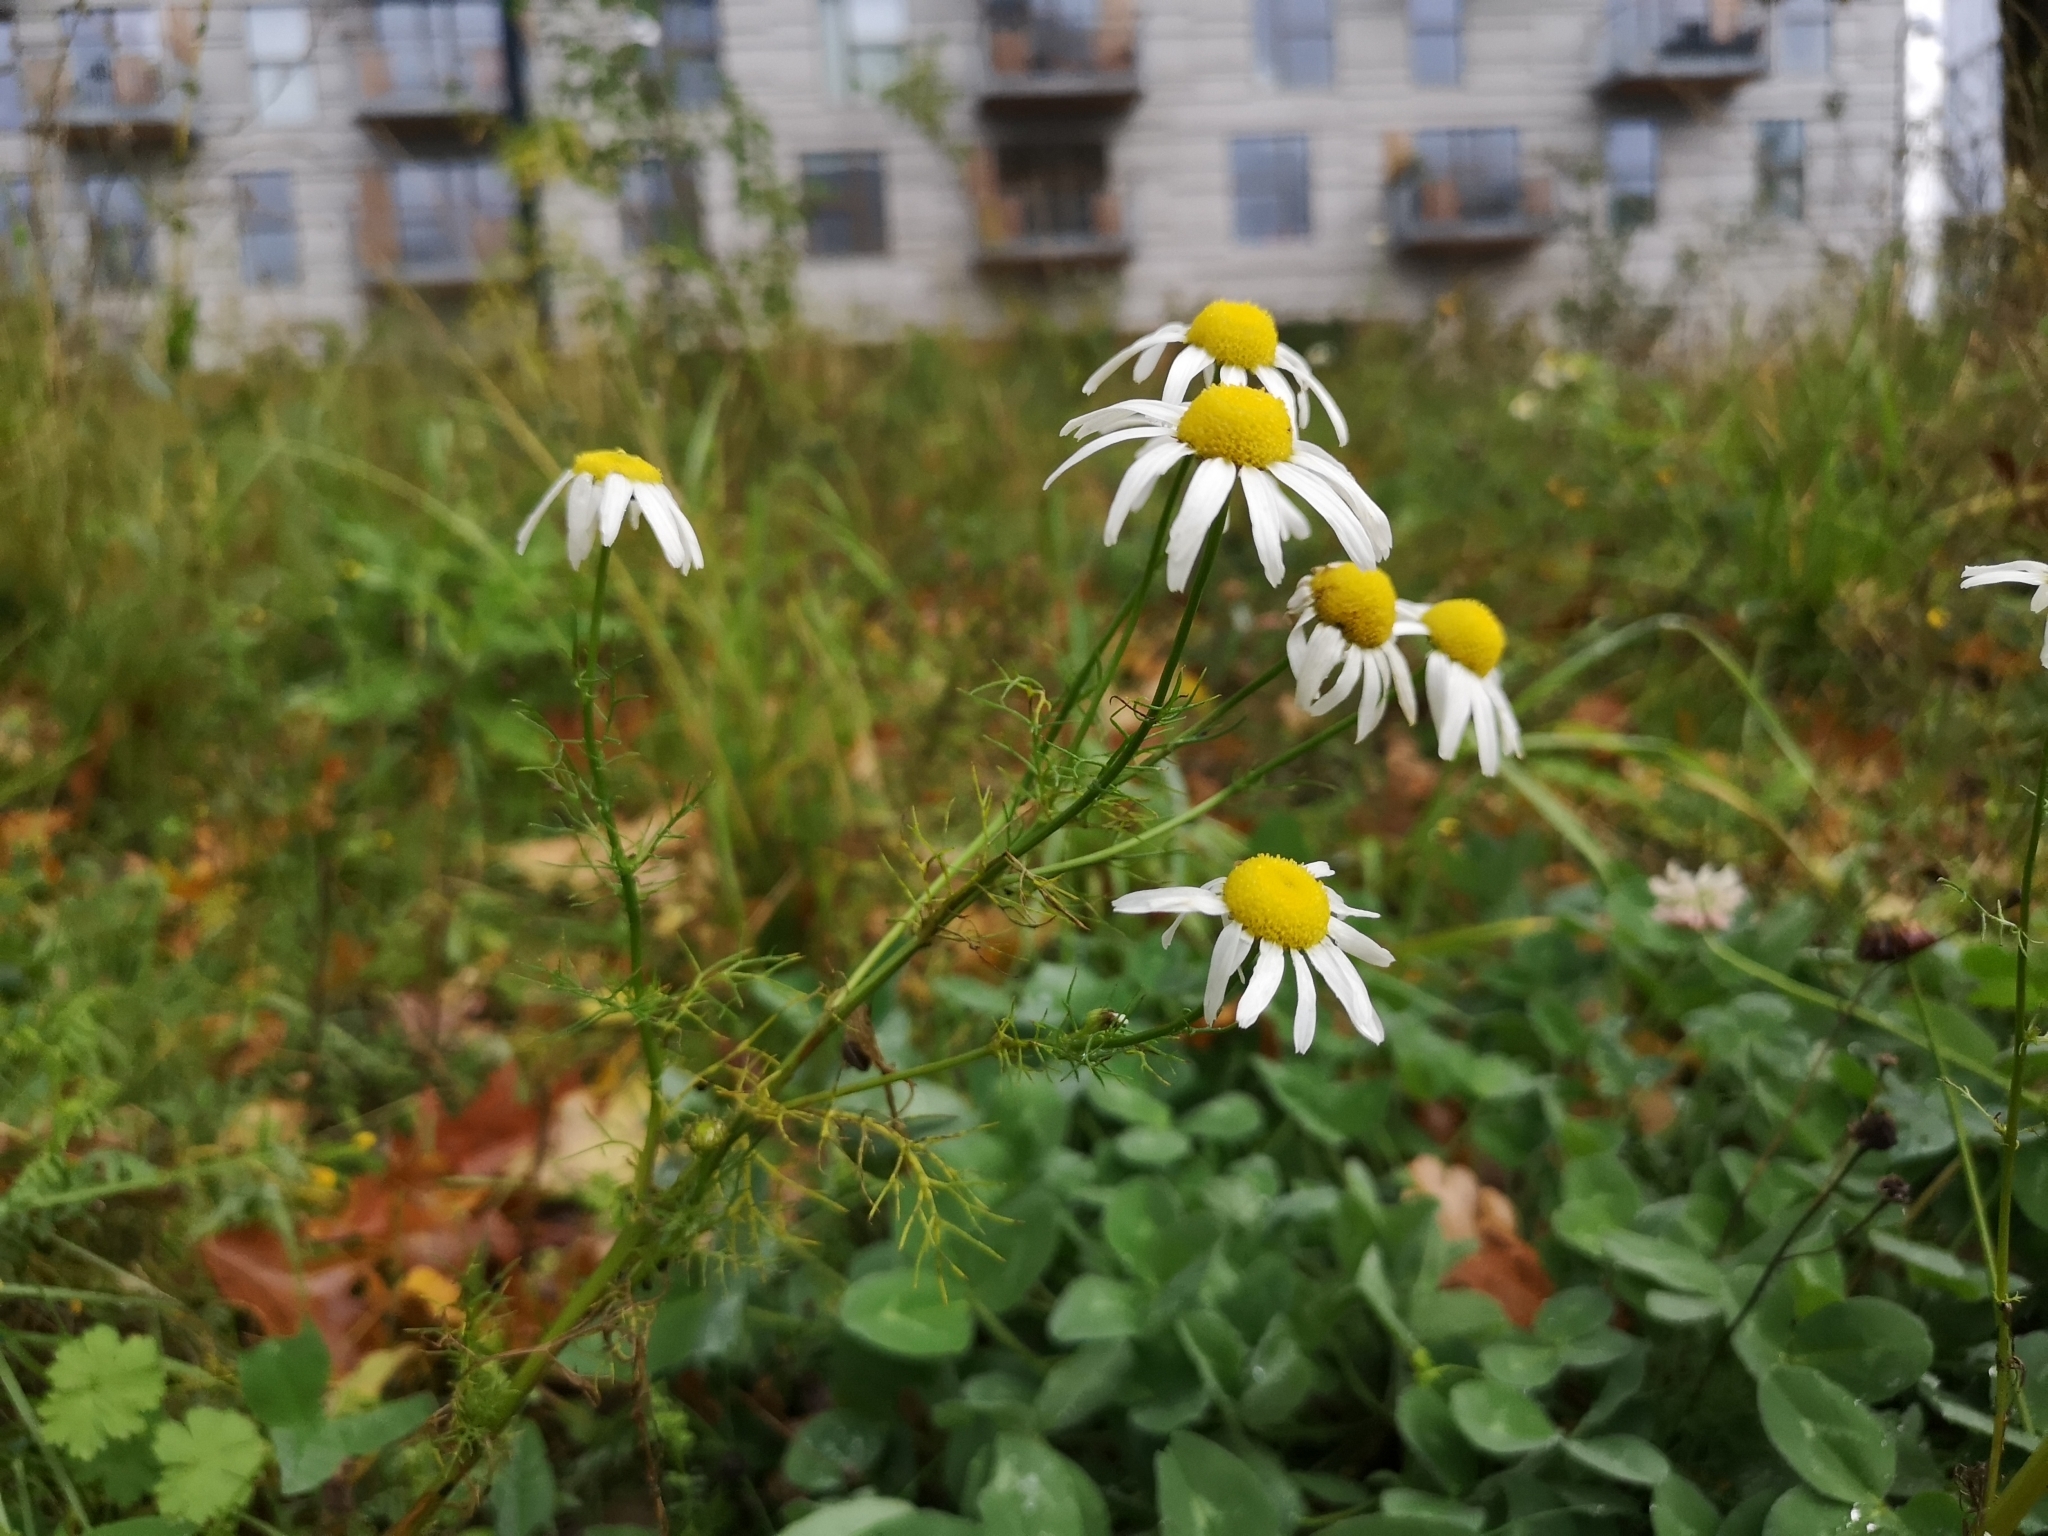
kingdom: Plantae
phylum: Tracheophyta
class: Magnoliopsida
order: Asterales
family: Asteraceae
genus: Tripleurospermum
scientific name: Tripleurospermum inodorum
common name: Scentless mayweed
